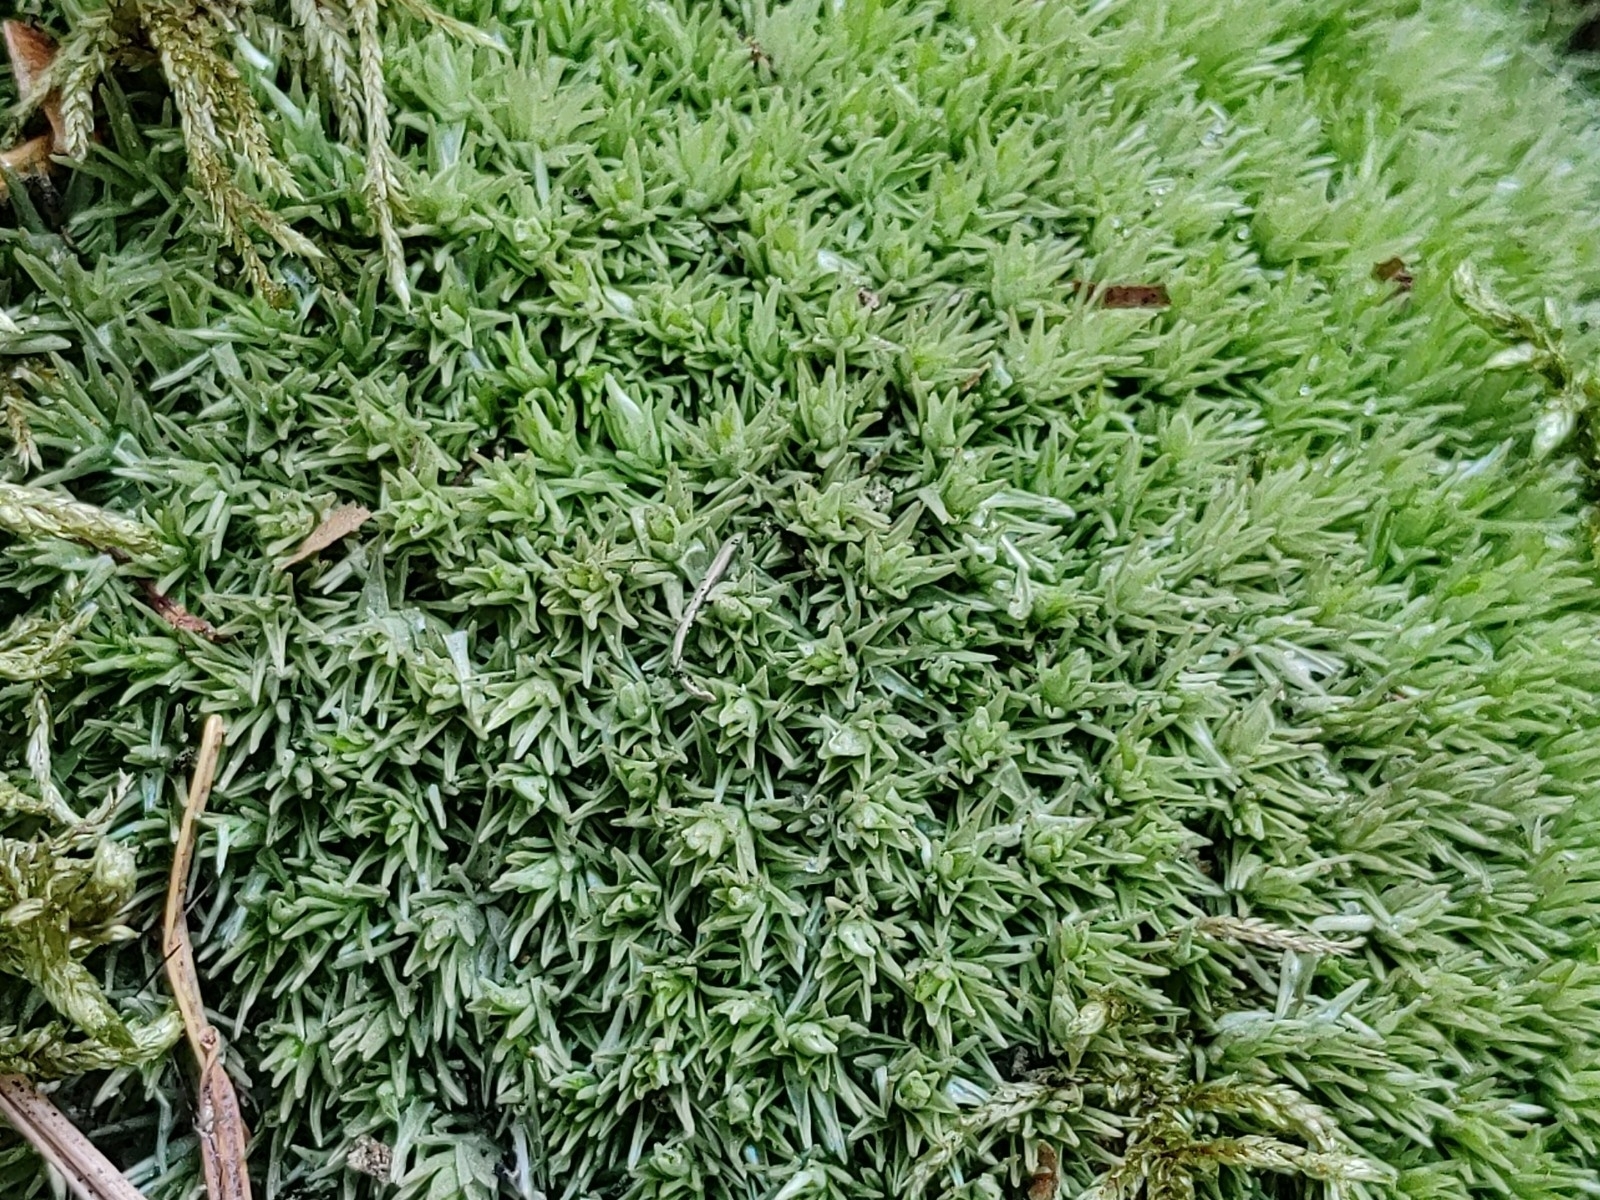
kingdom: Plantae
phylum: Bryophyta
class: Bryopsida
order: Dicranales
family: Leucobryaceae
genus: Leucobryum
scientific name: Leucobryum glaucum
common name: Large white-moss
